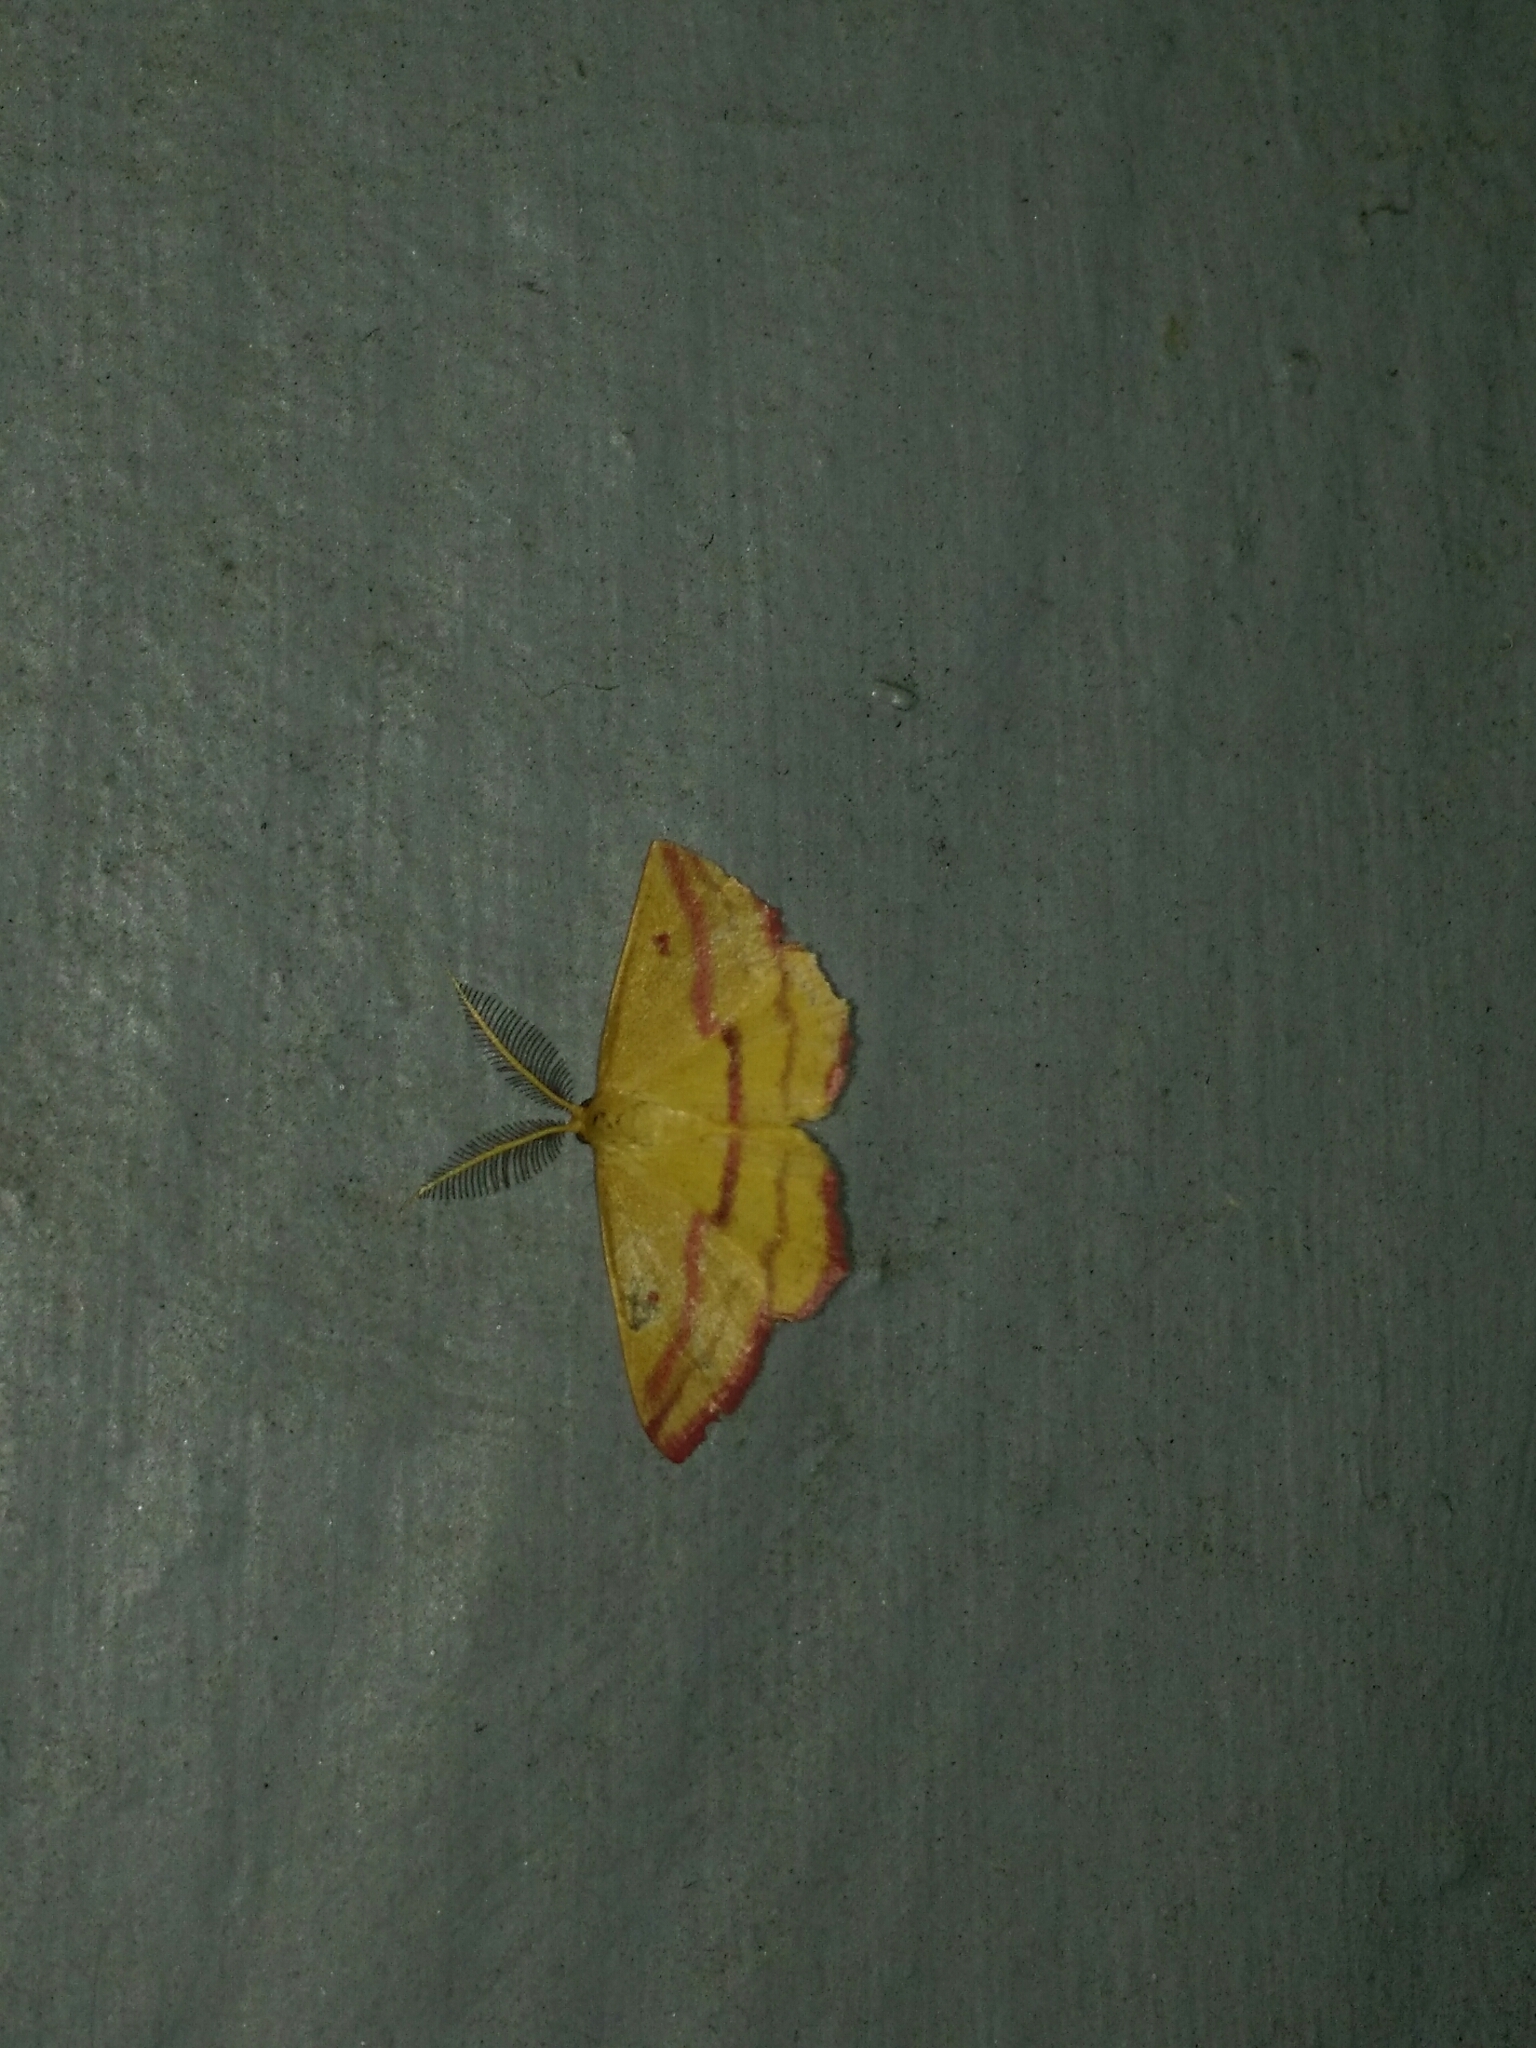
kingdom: Animalia
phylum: Arthropoda
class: Insecta
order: Lepidoptera
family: Geometridae
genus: Haematopis
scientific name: Haematopis grataria
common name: Chickweed geometer
